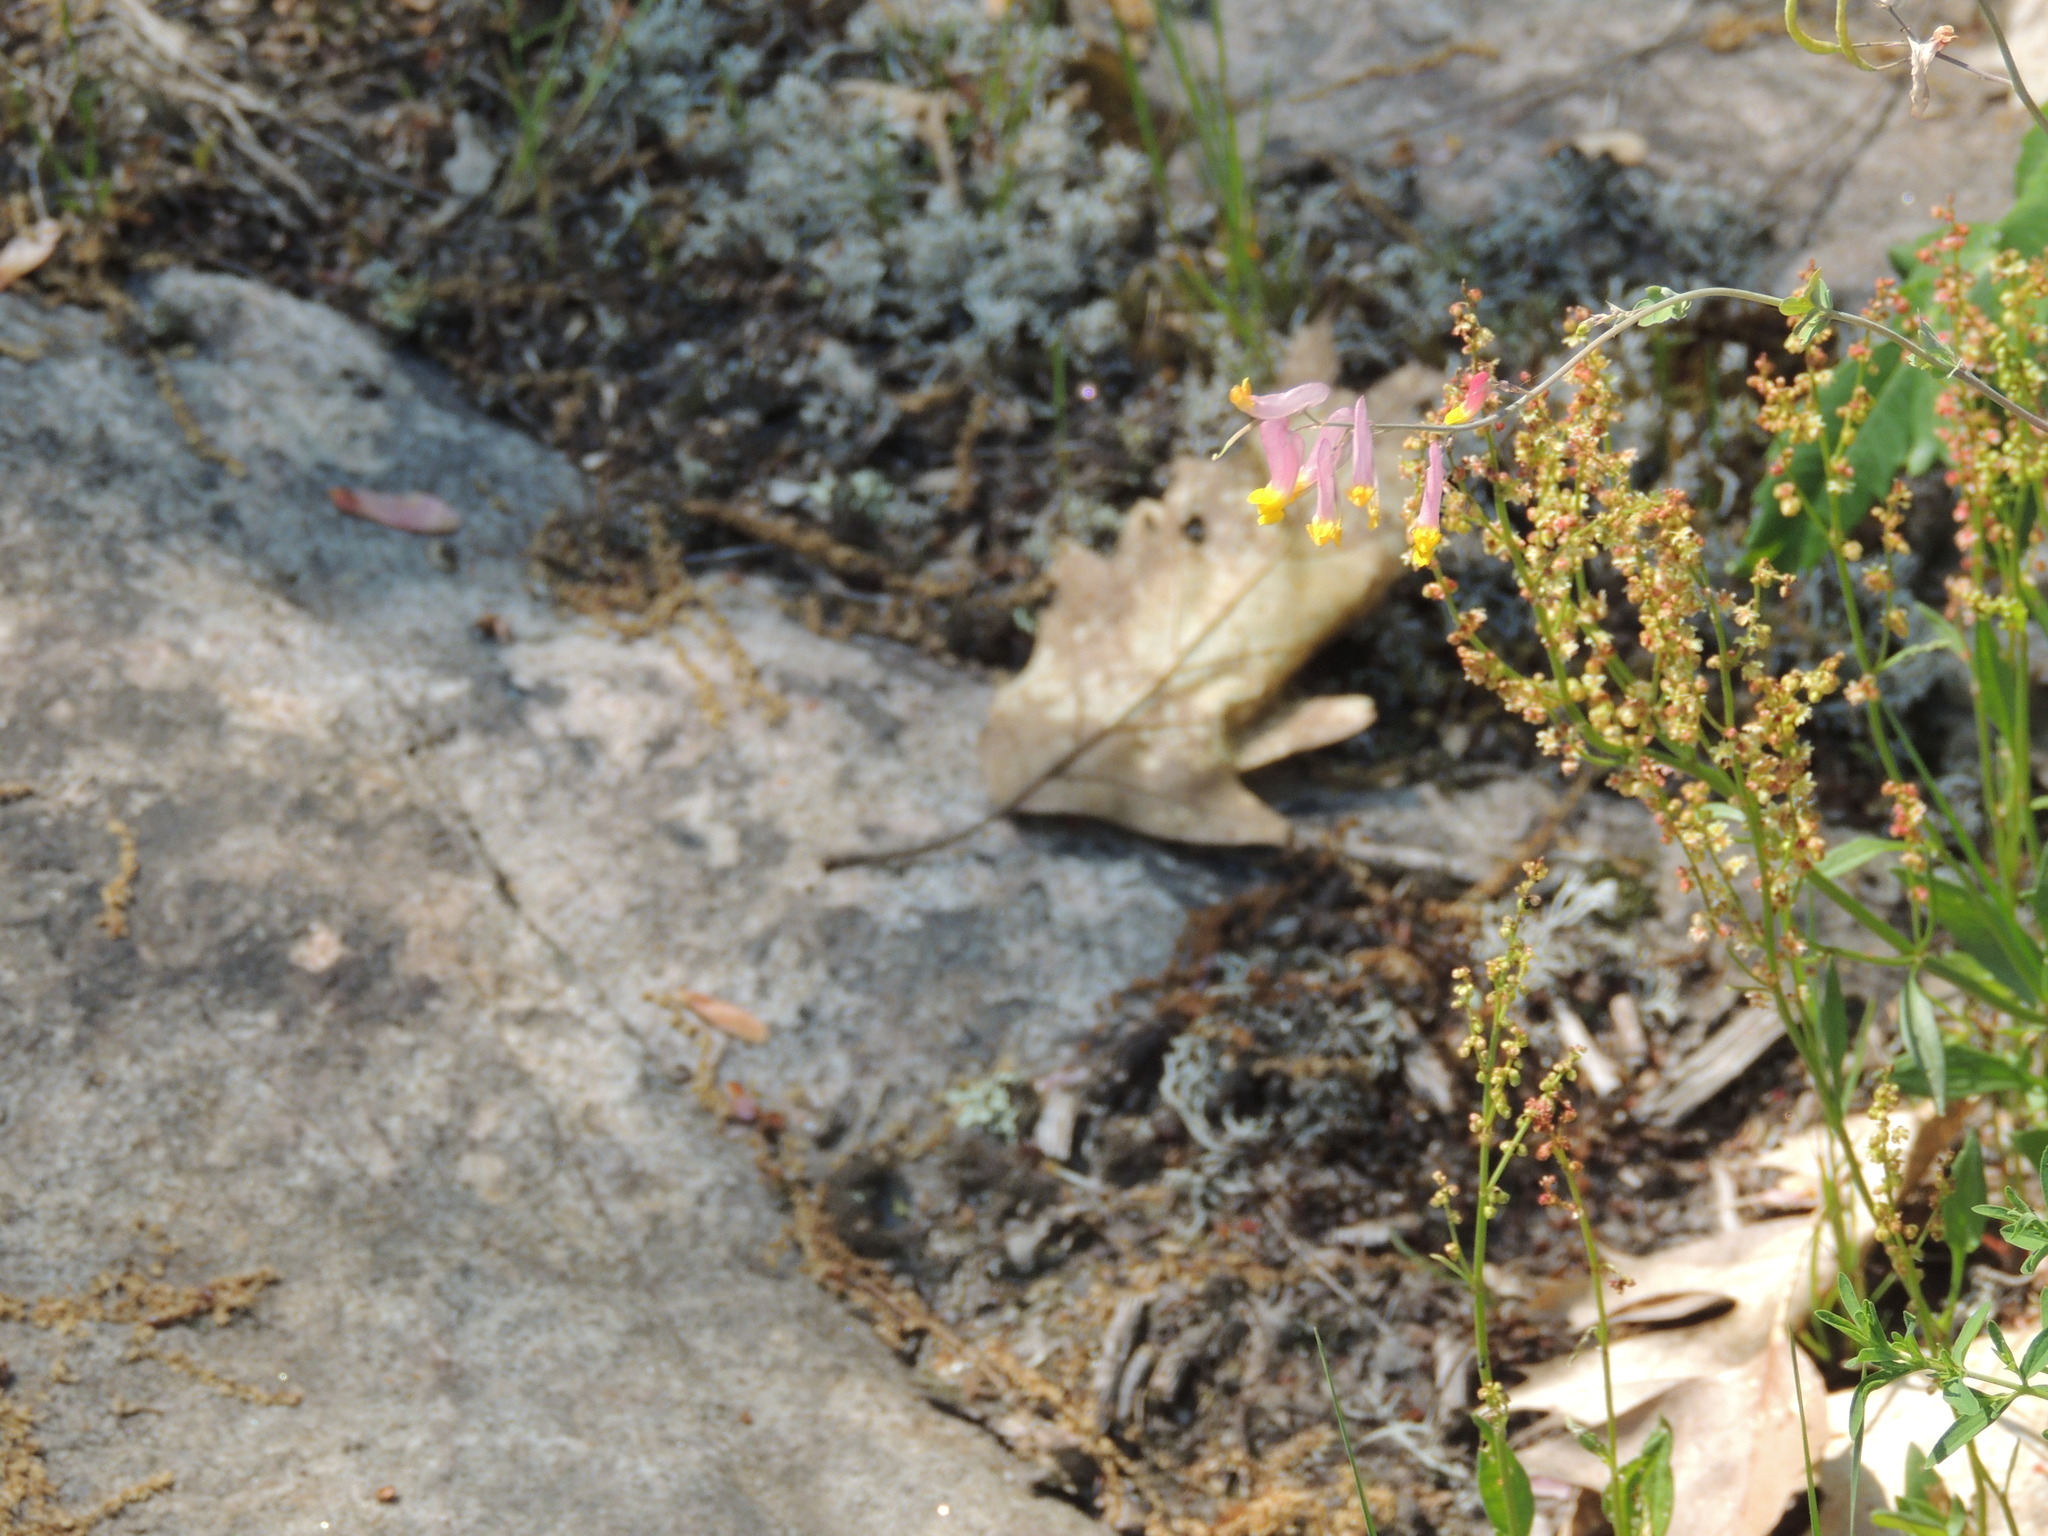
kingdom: Plantae
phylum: Tracheophyta
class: Magnoliopsida
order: Ranunculales
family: Papaveraceae
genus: Capnoides
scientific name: Capnoides sempervirens
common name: Rock harlequin
